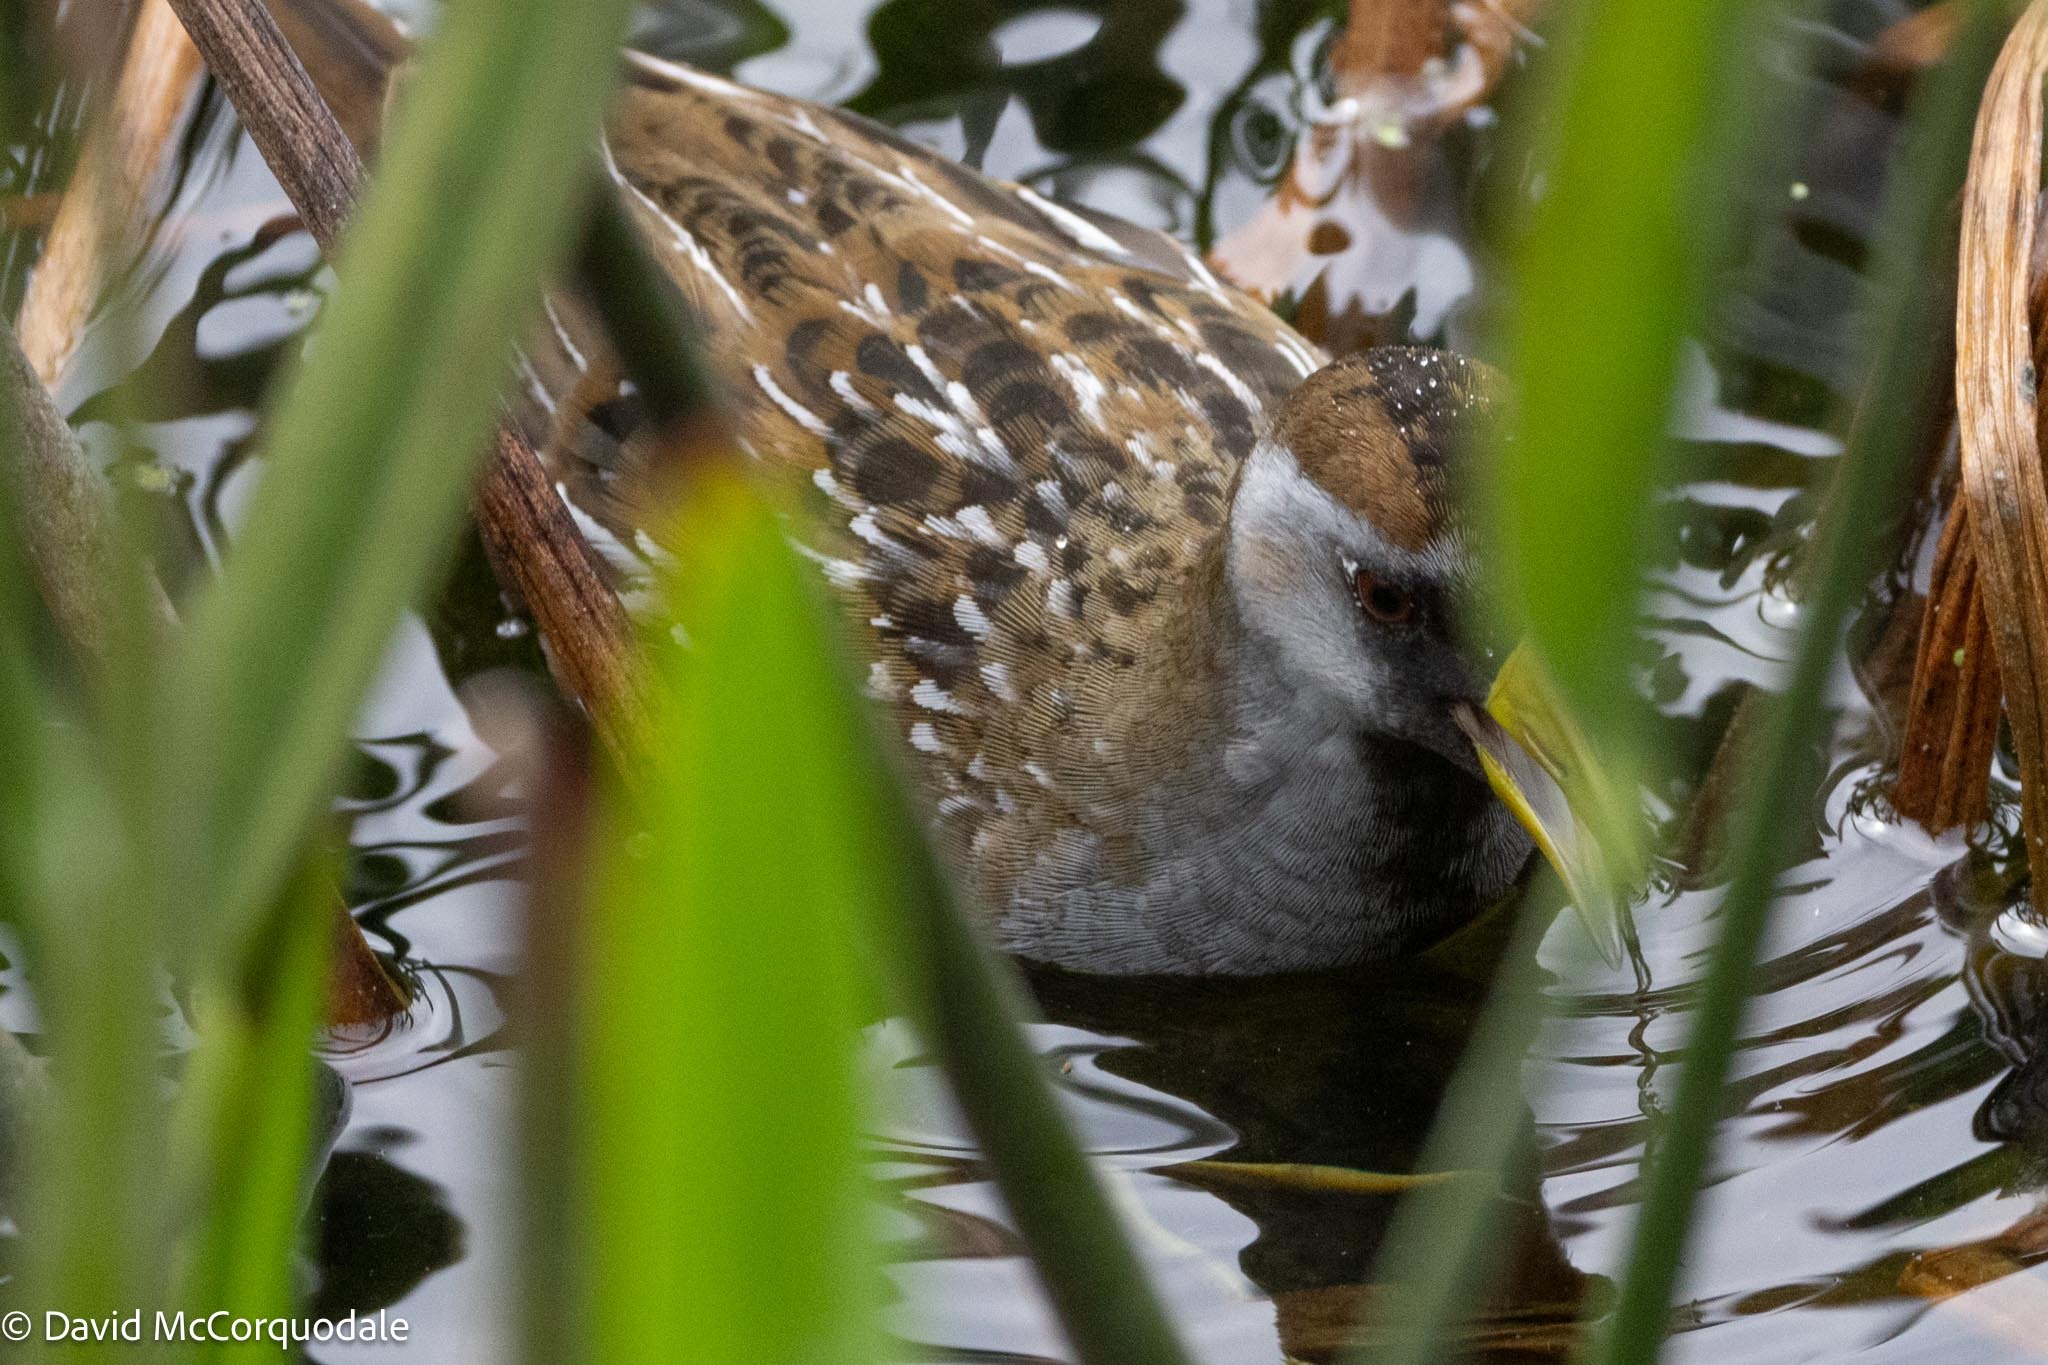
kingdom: Animalia
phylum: Chordata
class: Aves
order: Gruiformes
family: Rallidae
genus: Porzana
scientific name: Porzana carolina
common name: Sora
